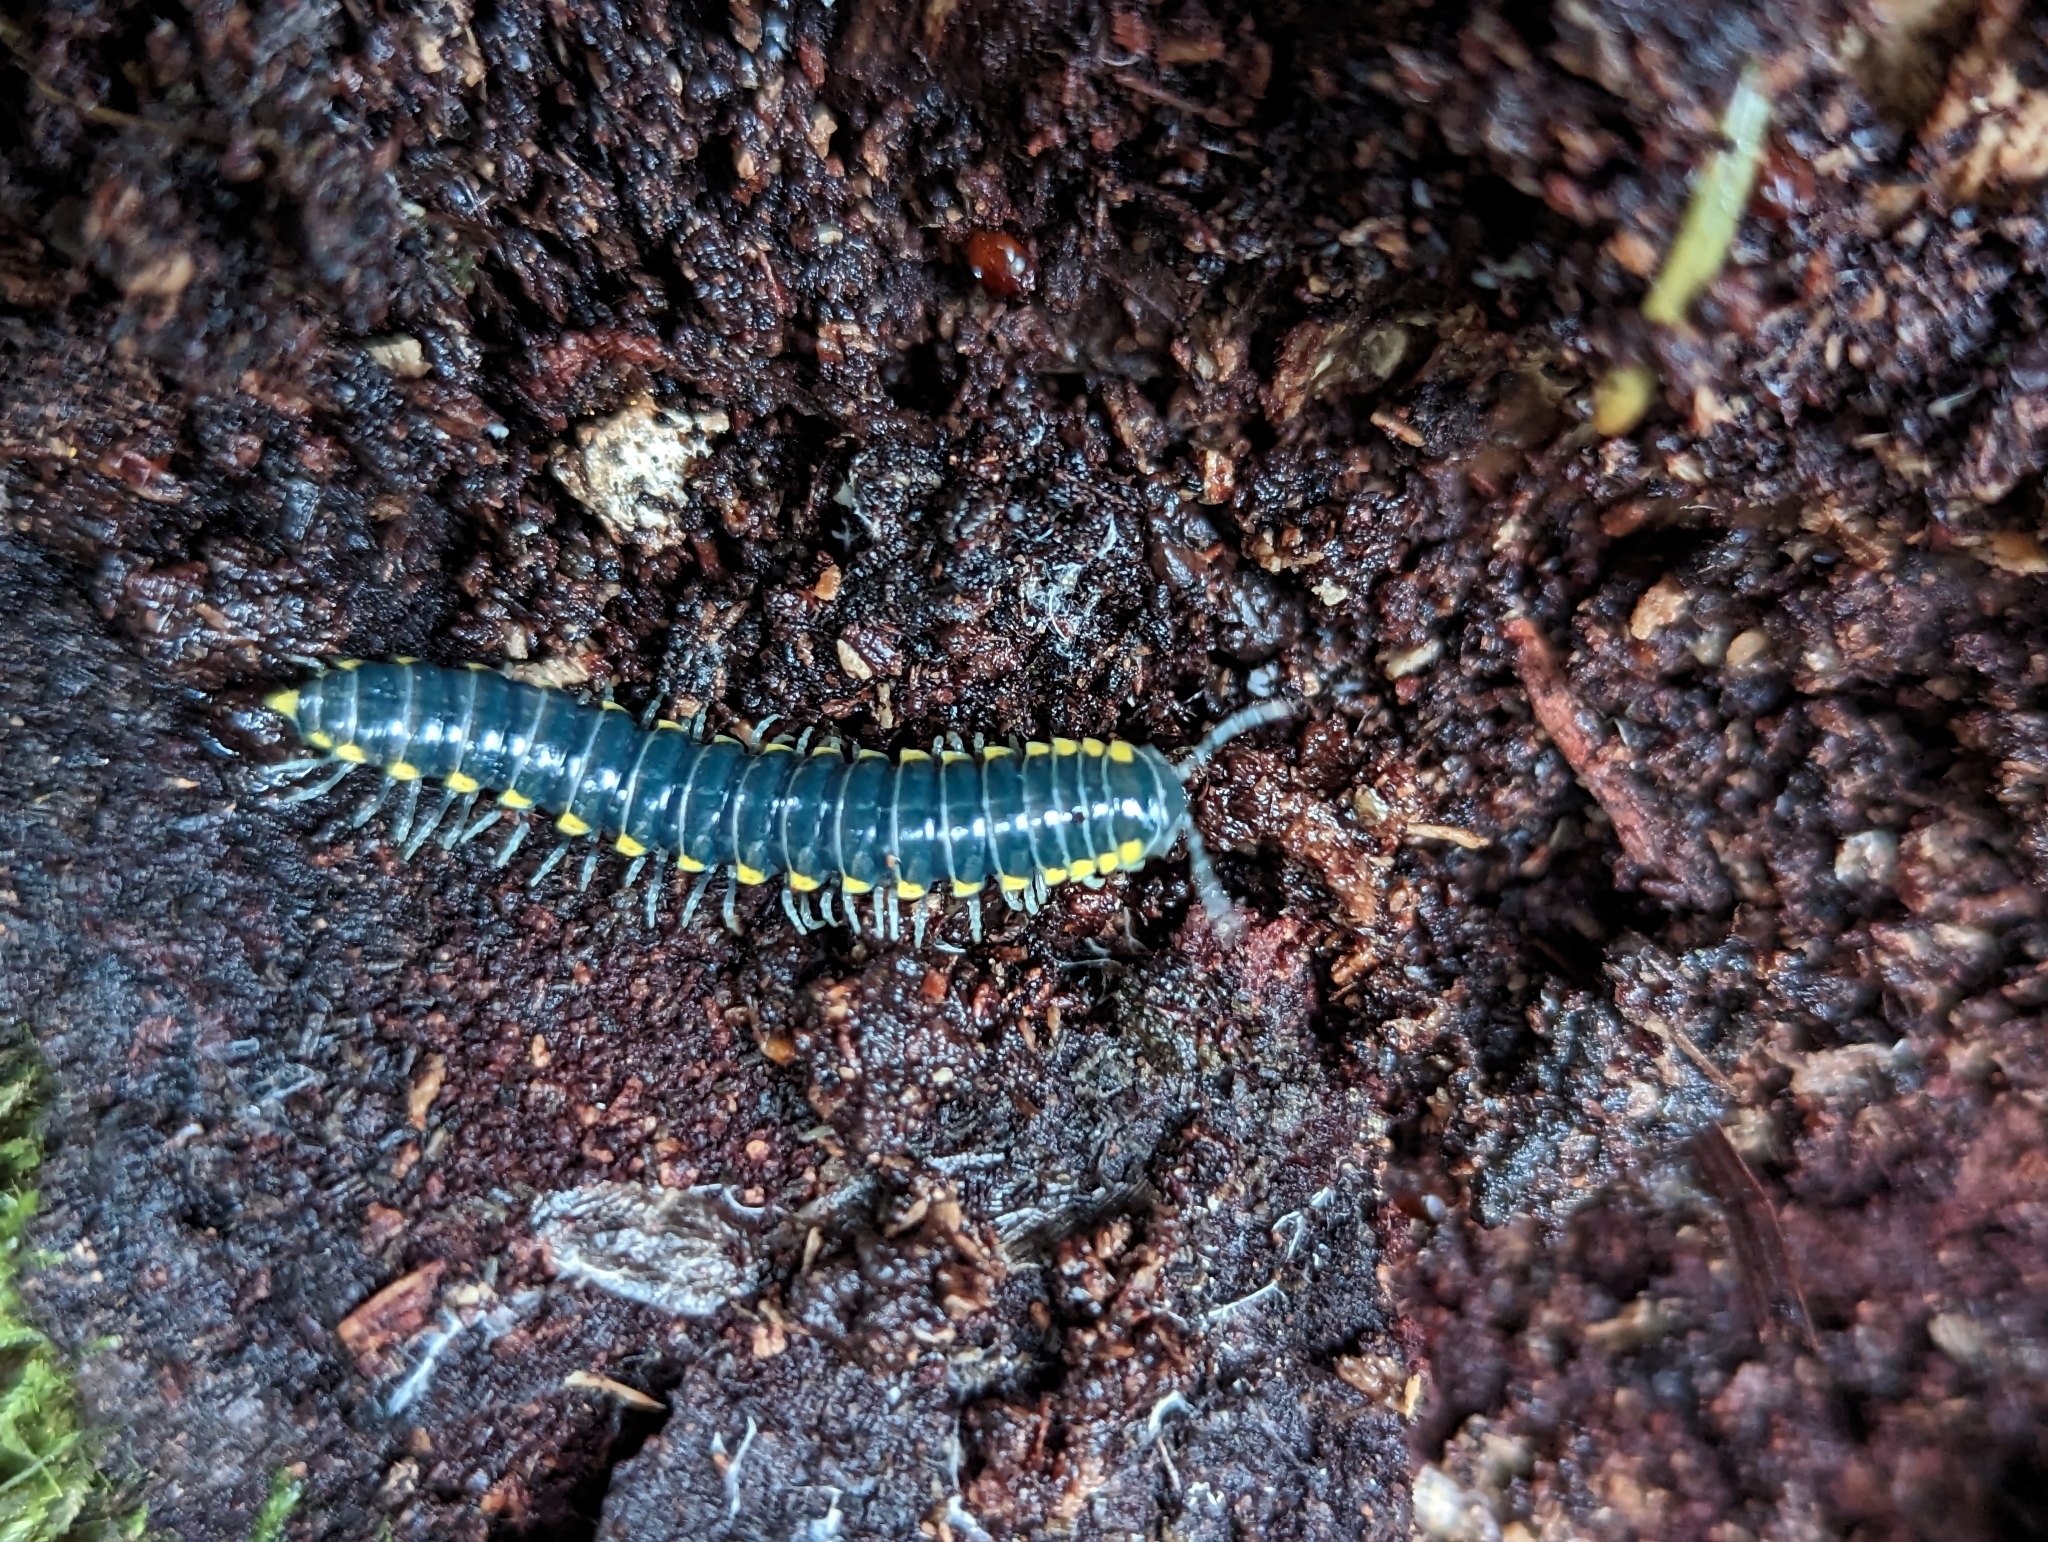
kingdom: Animalia
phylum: Arthropoda
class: Diplopoda
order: Polydesmida
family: Xystodesmidae
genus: Harpaphe
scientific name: Harpaphe haydeniana
